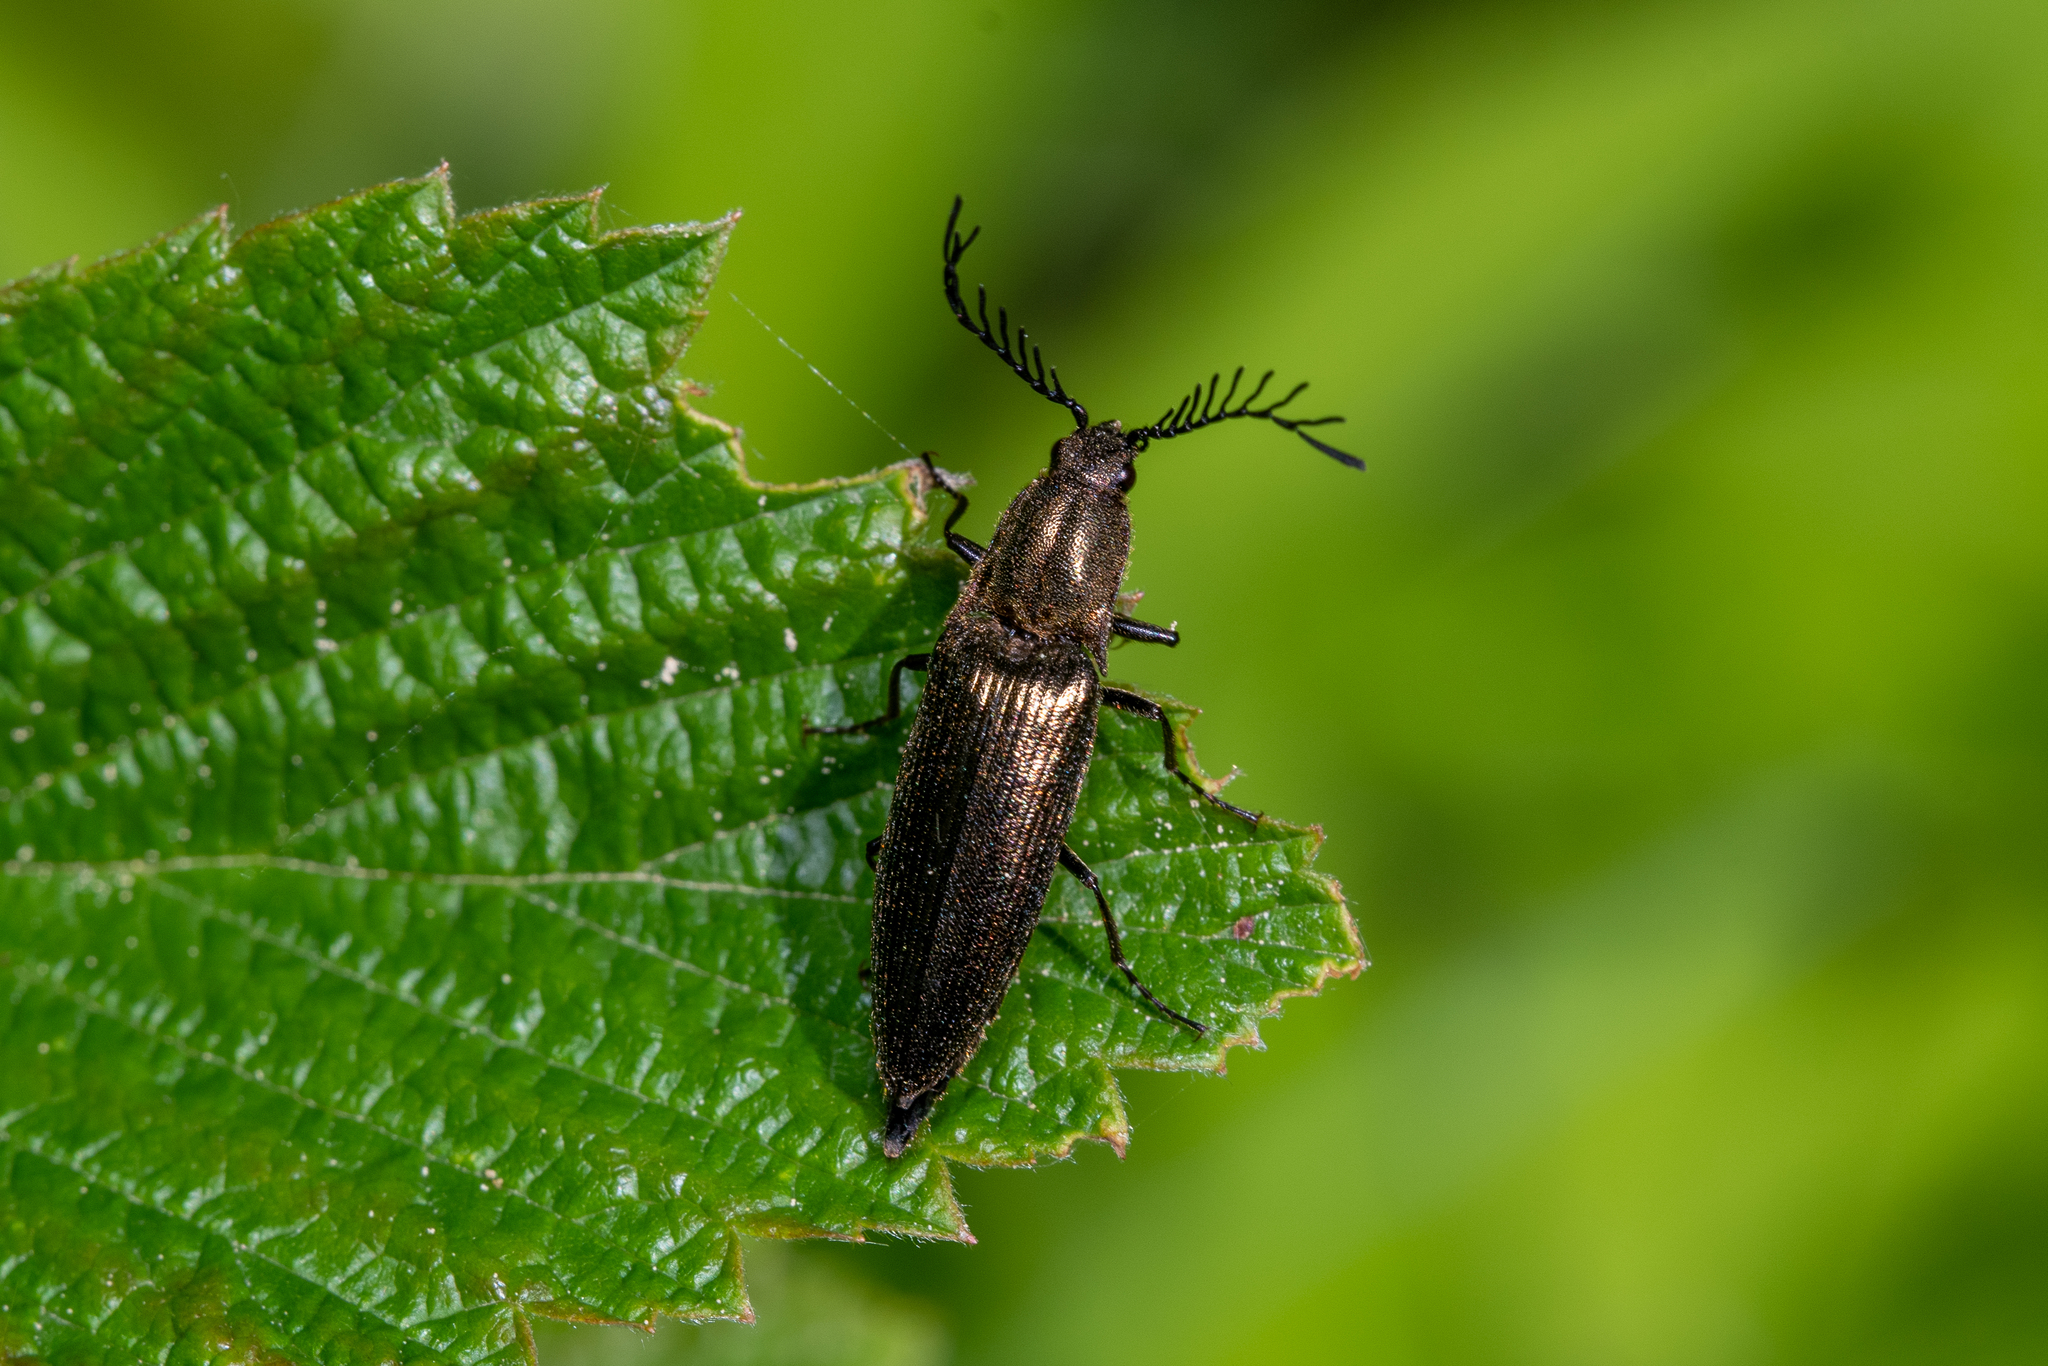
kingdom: Animalia
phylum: Arthropoda
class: Insecta
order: Coleoptera
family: Elateridae
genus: Ctenicera
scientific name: Ctenicera pectinicornis
